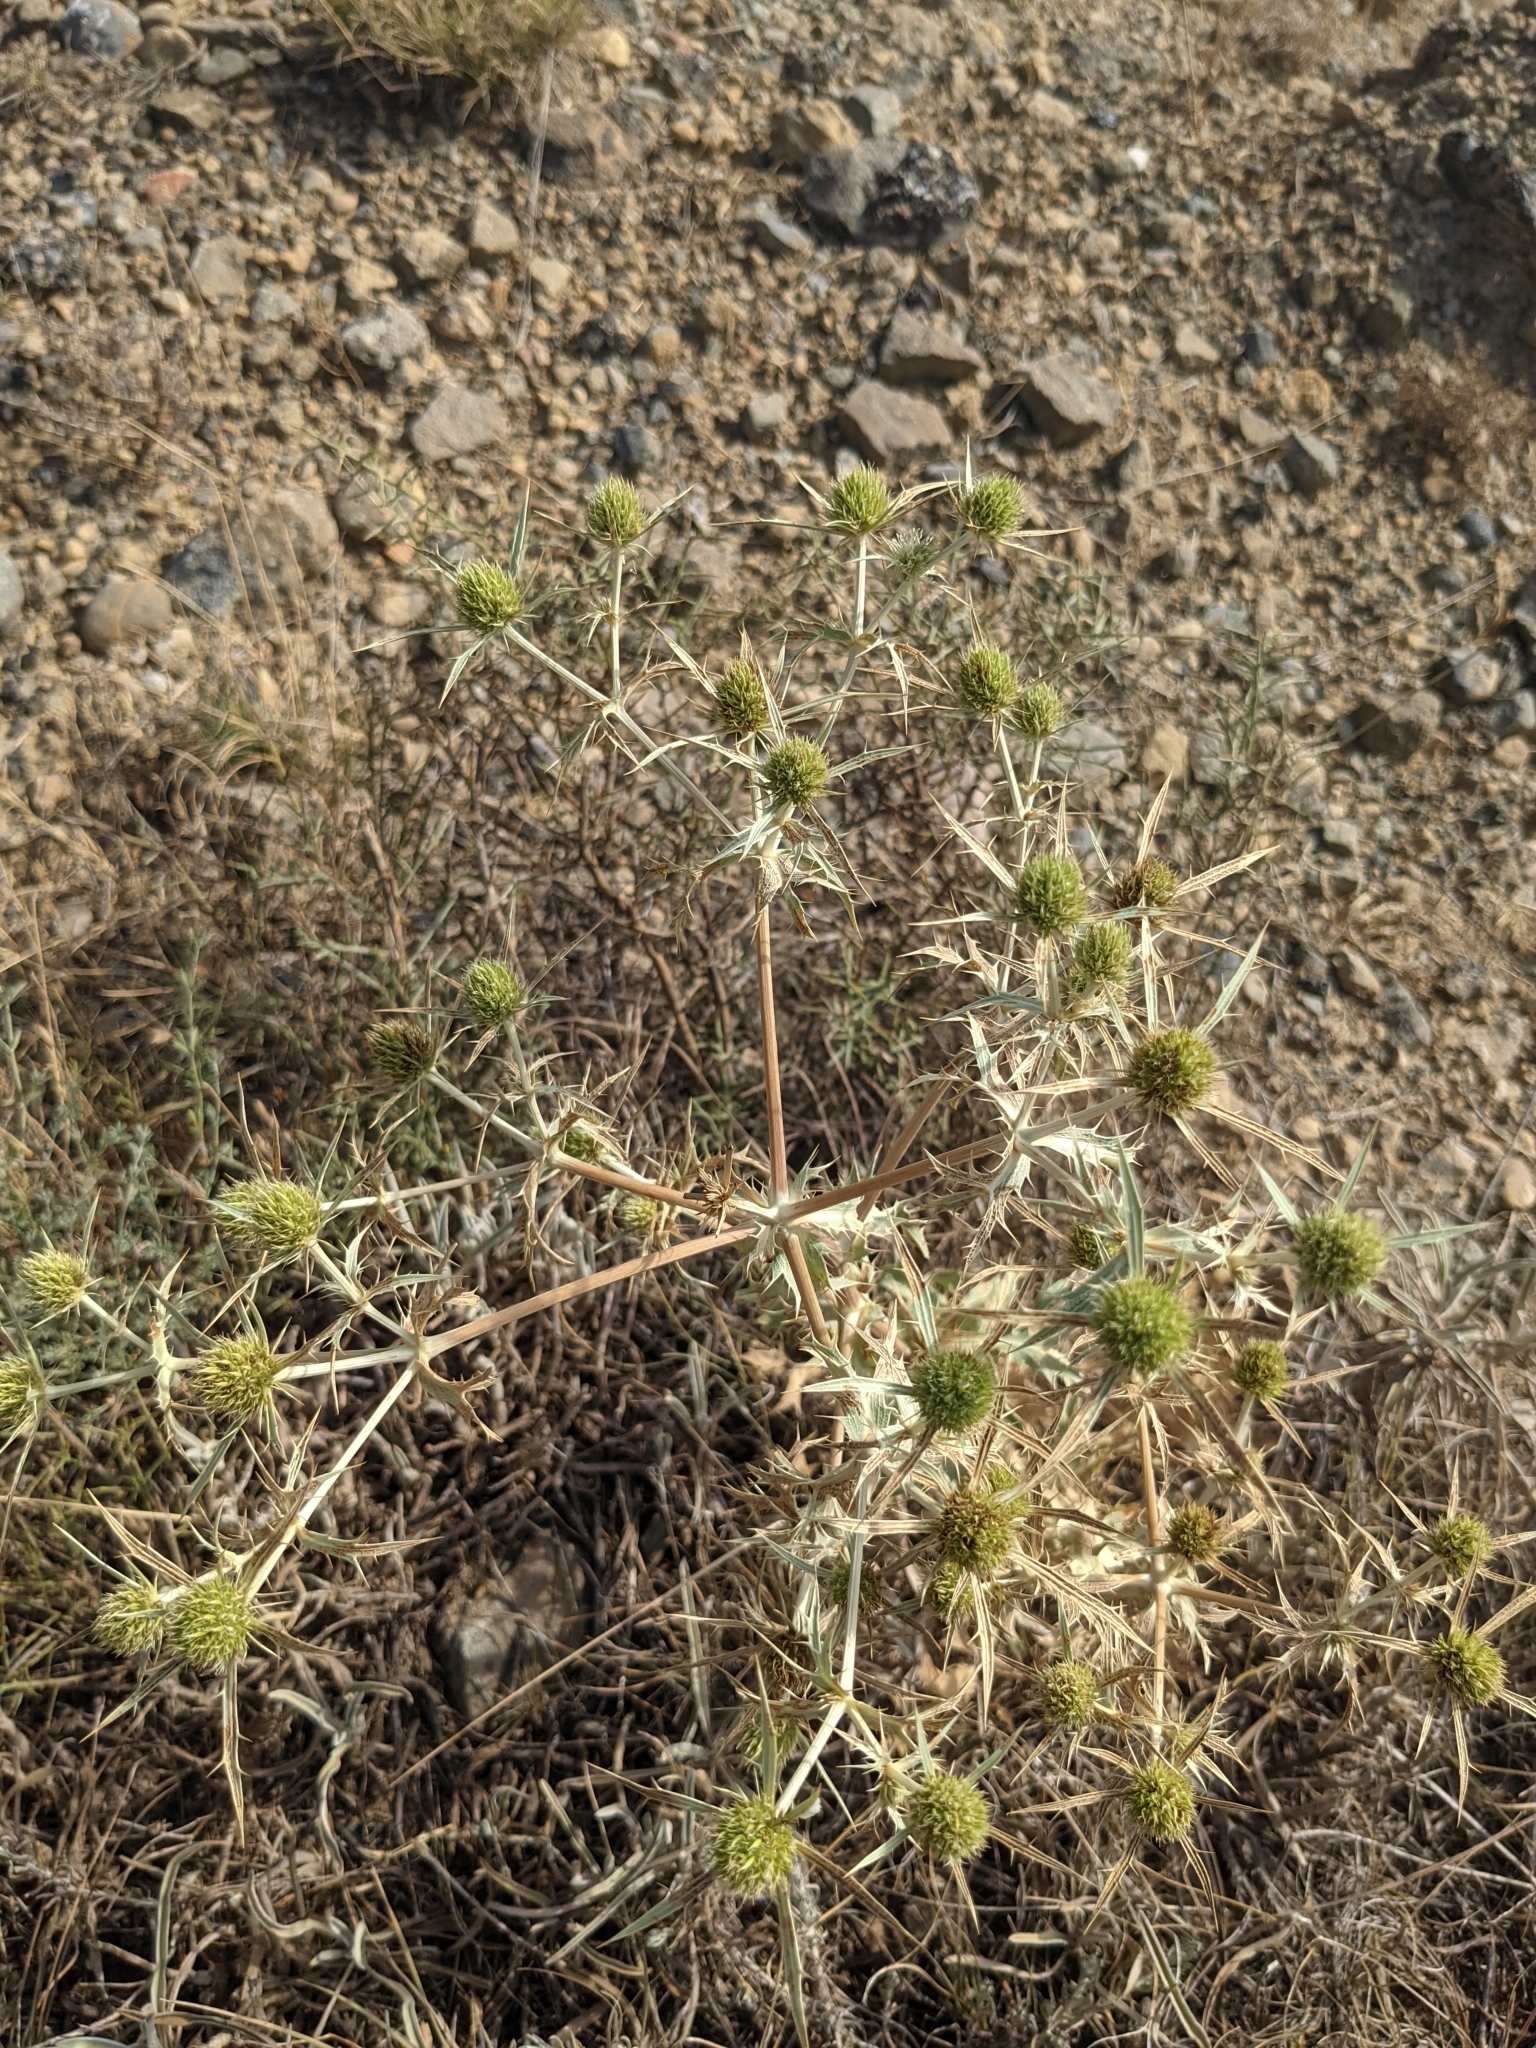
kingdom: Plantae
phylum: Tracheophyta
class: Magnoliopsida
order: Apiales
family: Apiaceae
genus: Eryngium
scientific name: Eryngium campestre
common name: Field eryngo
